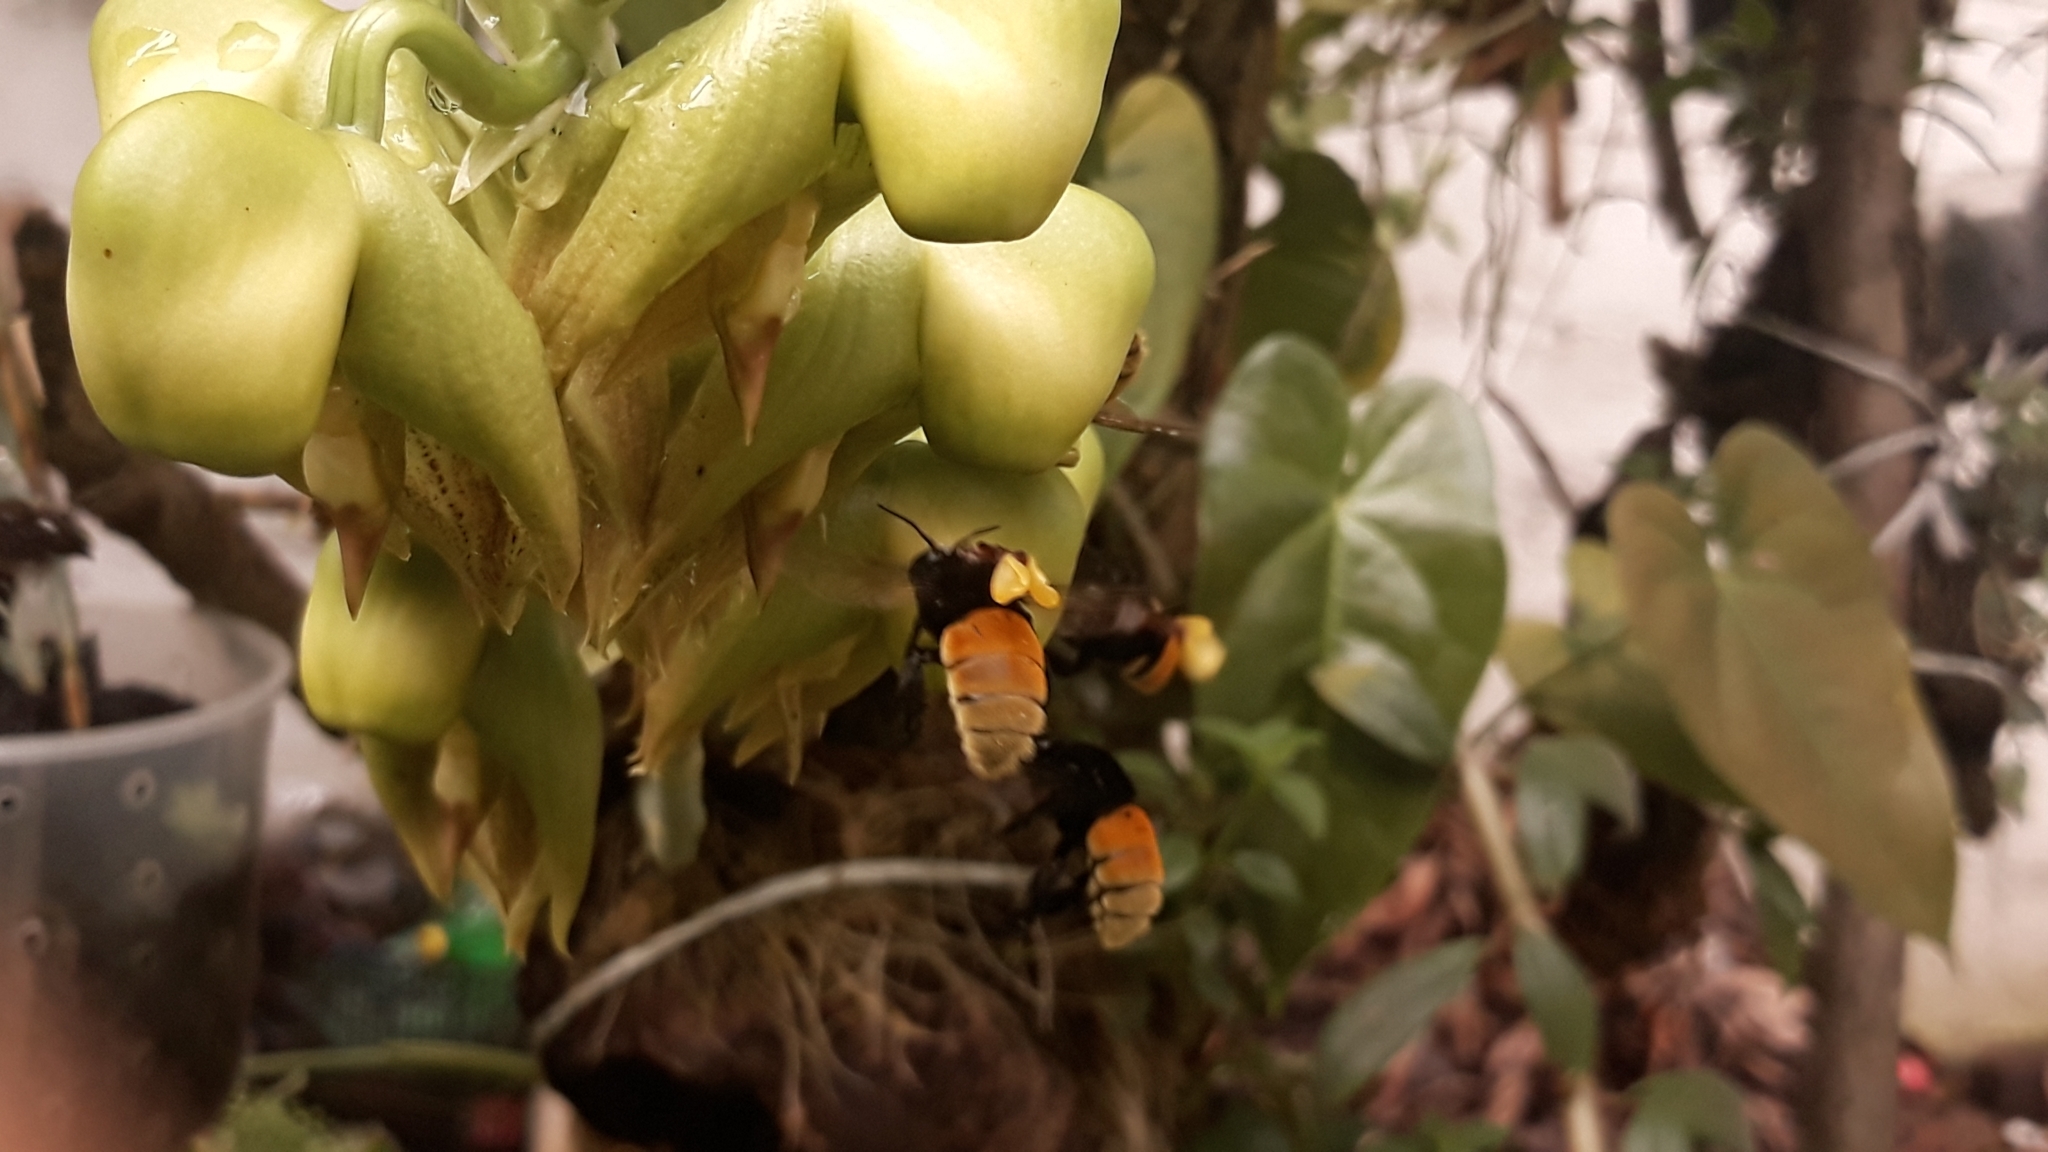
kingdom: Animalia
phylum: Arthropoda
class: Insecta
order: Hymenoptera
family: Apidae
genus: Eulaema
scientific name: Eulaema polychroma
